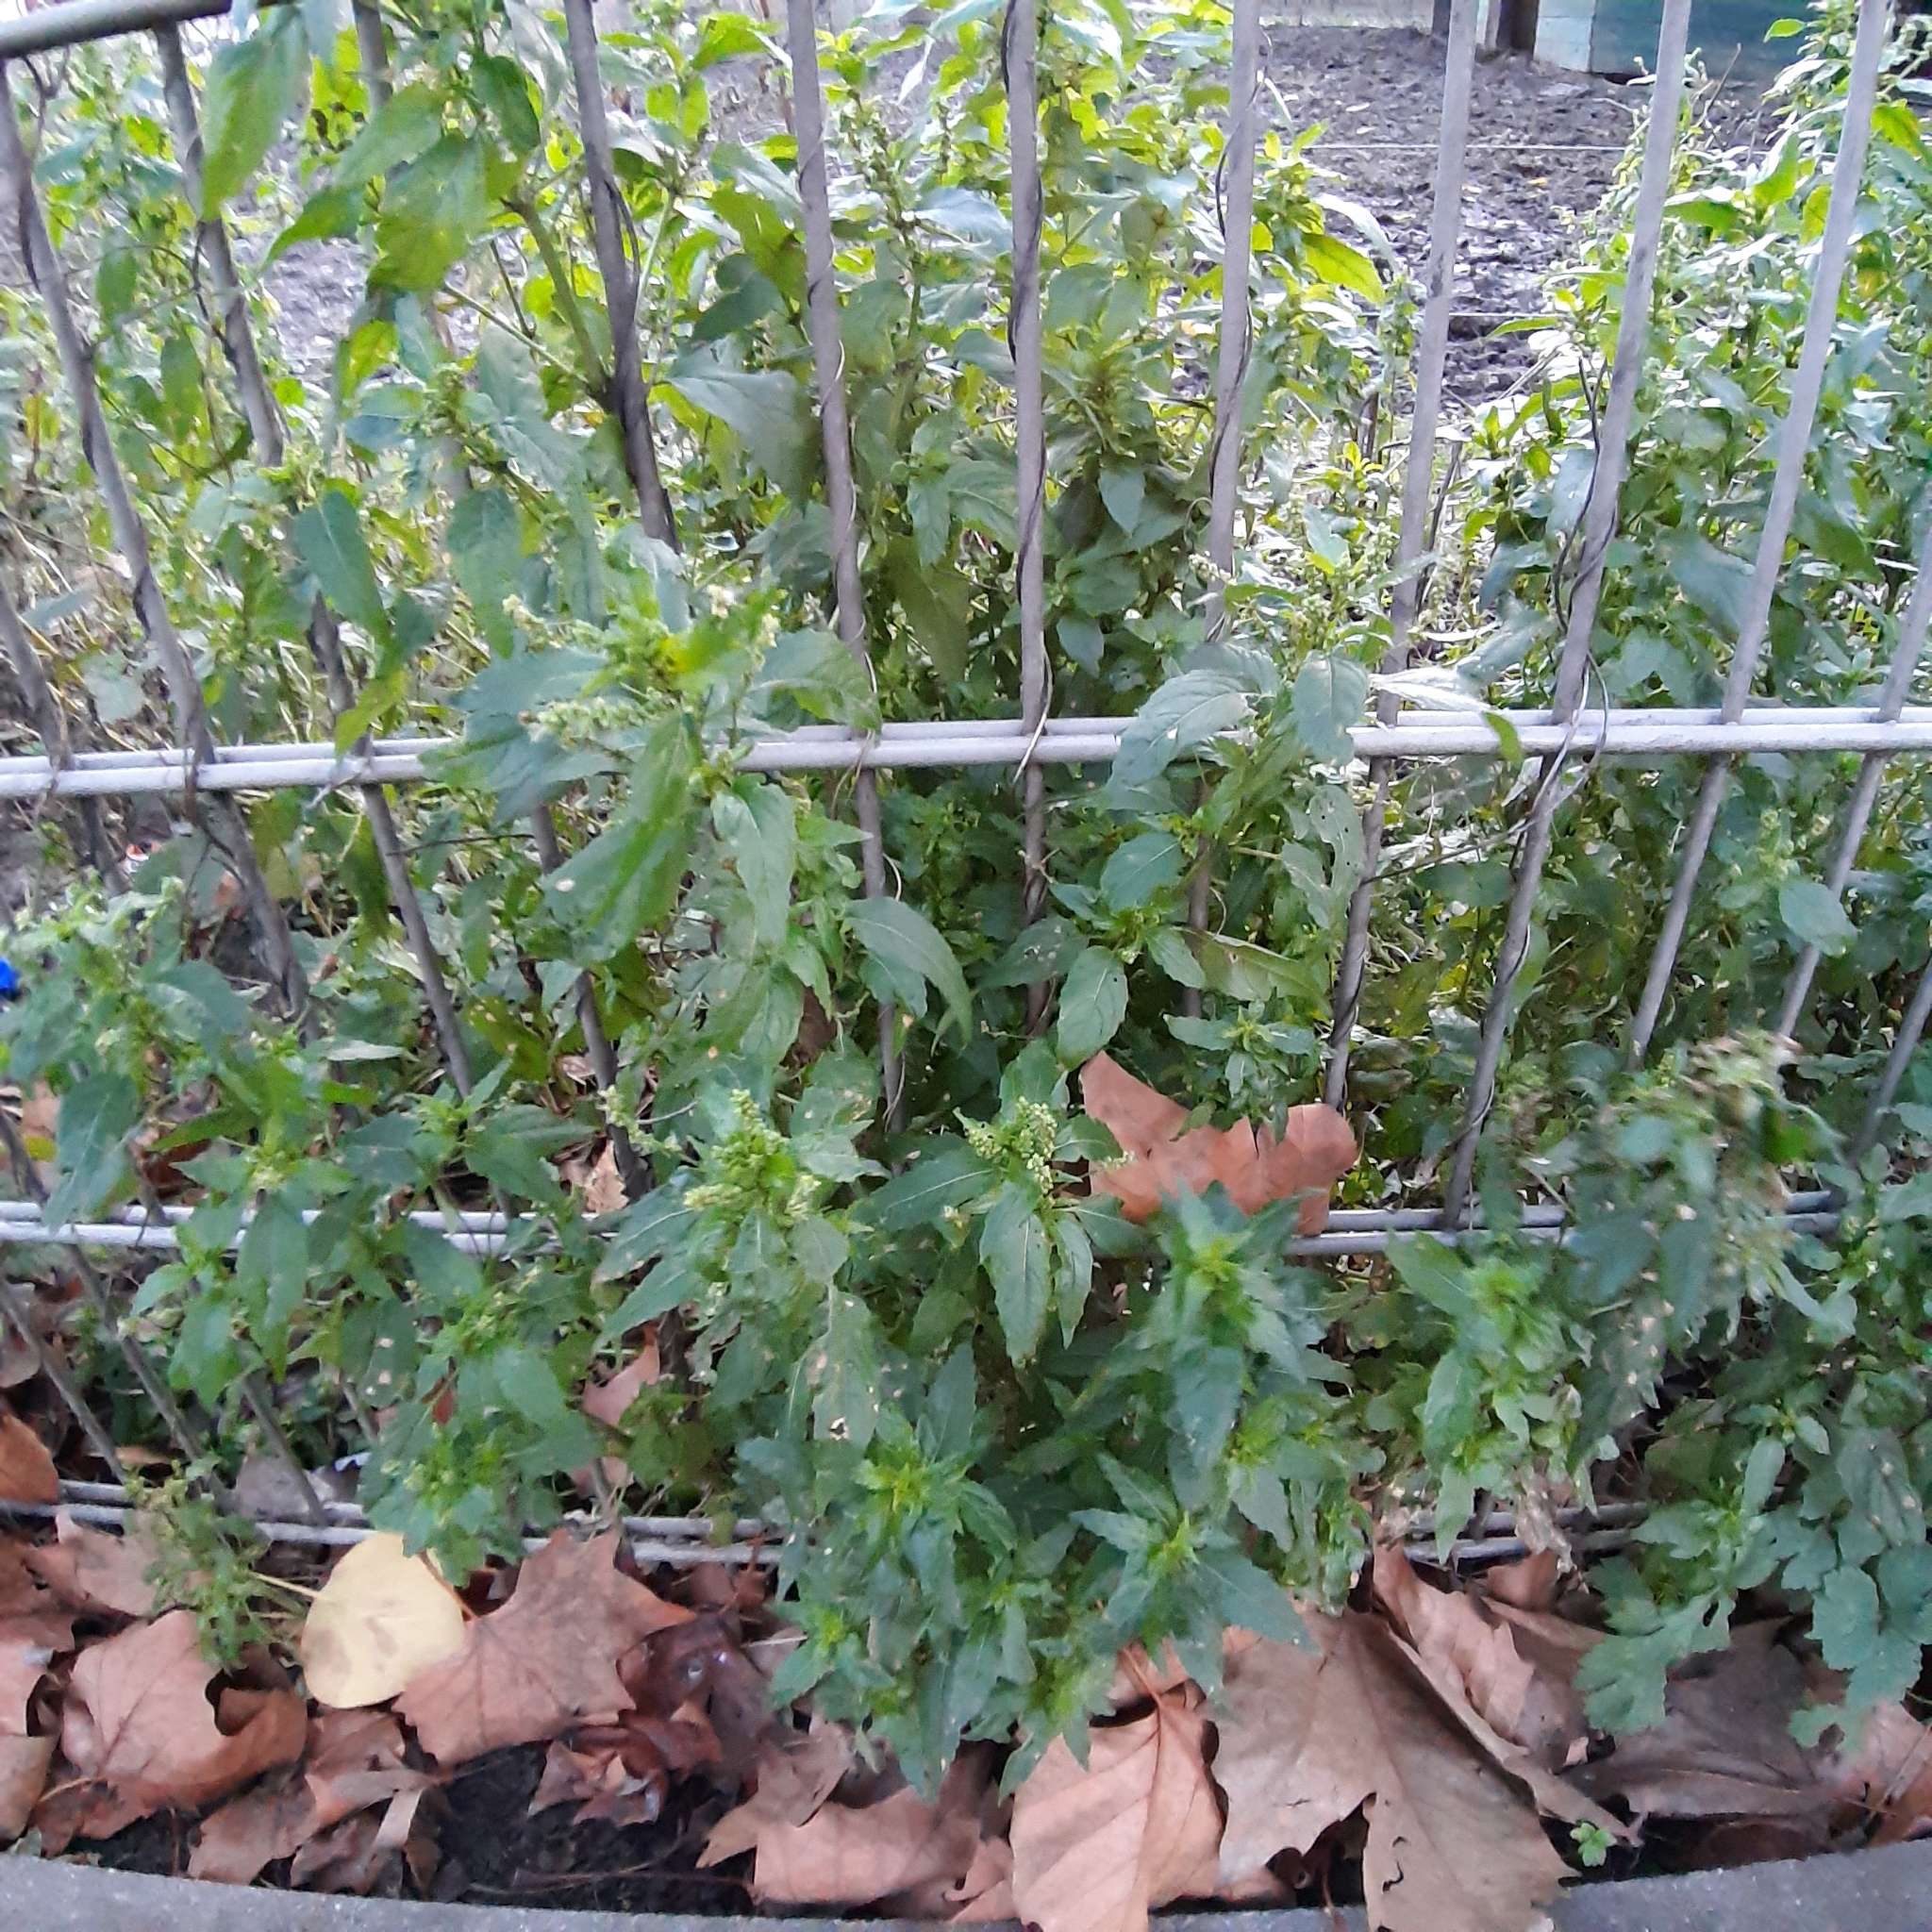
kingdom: Plantae
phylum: Tracheophyta
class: Magnoliopsida
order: Malpighiales
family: Euphorbiaceae
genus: Mercurialis
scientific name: Mercurialis annua
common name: Annual mercury
